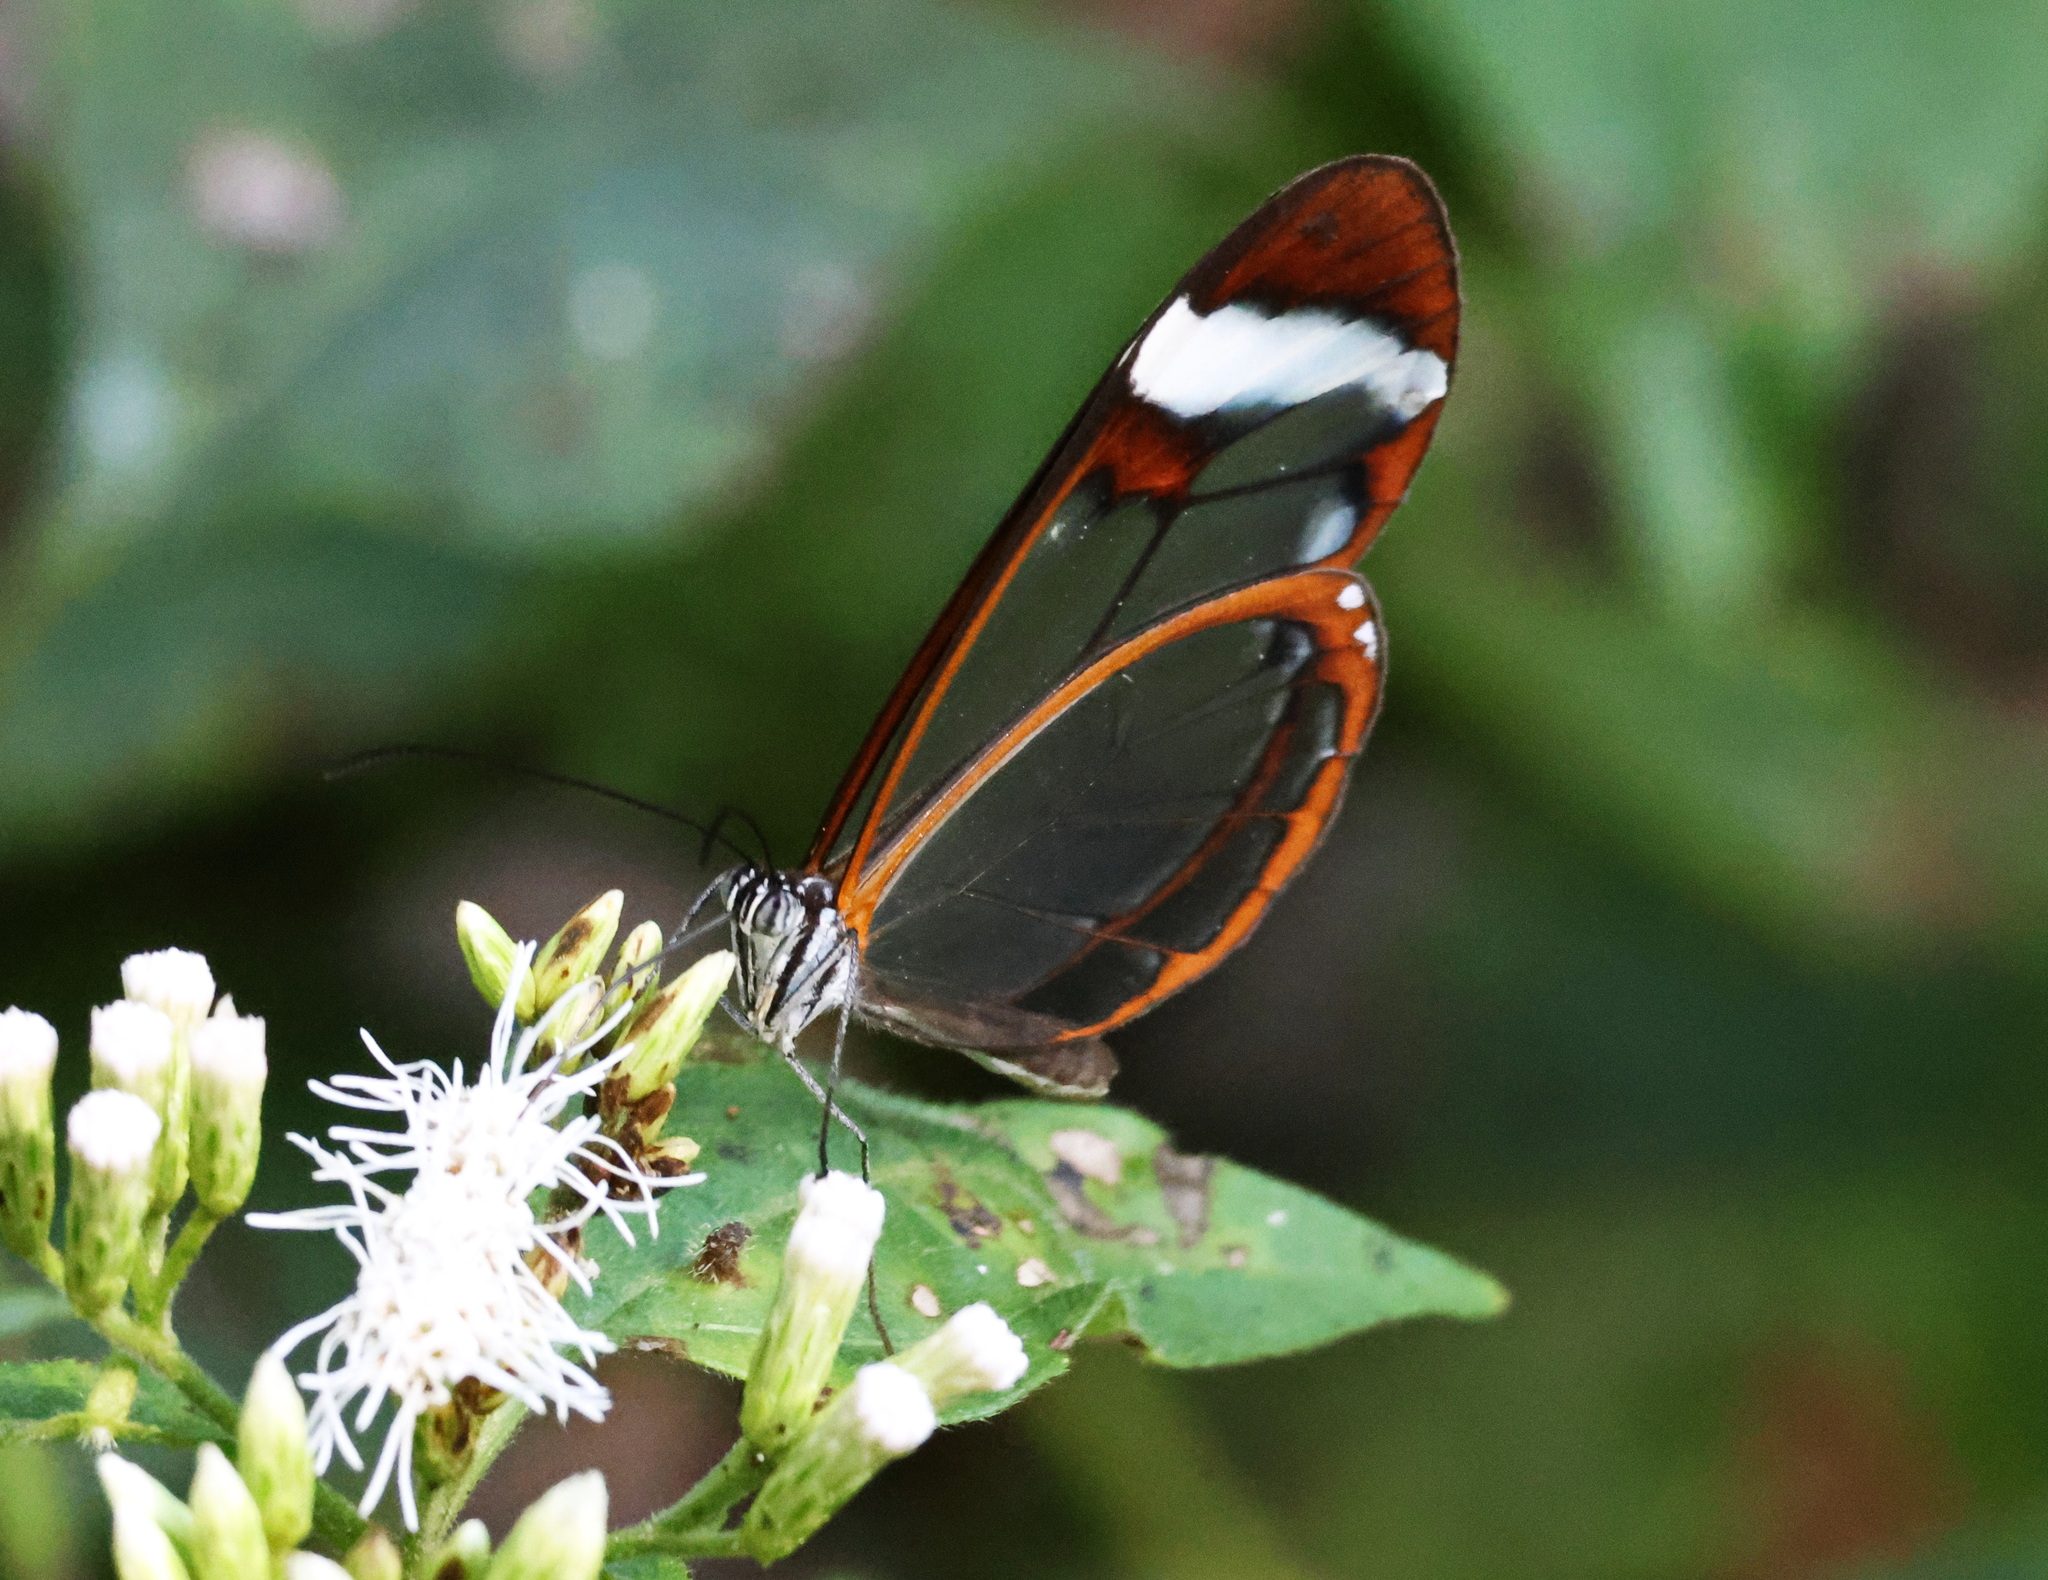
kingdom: Animalia
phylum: Arthropoda
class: Insecta
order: Lepidoptera
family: Nymphalidae
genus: Greta
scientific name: Greta morgane
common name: Thick-tipped greta
